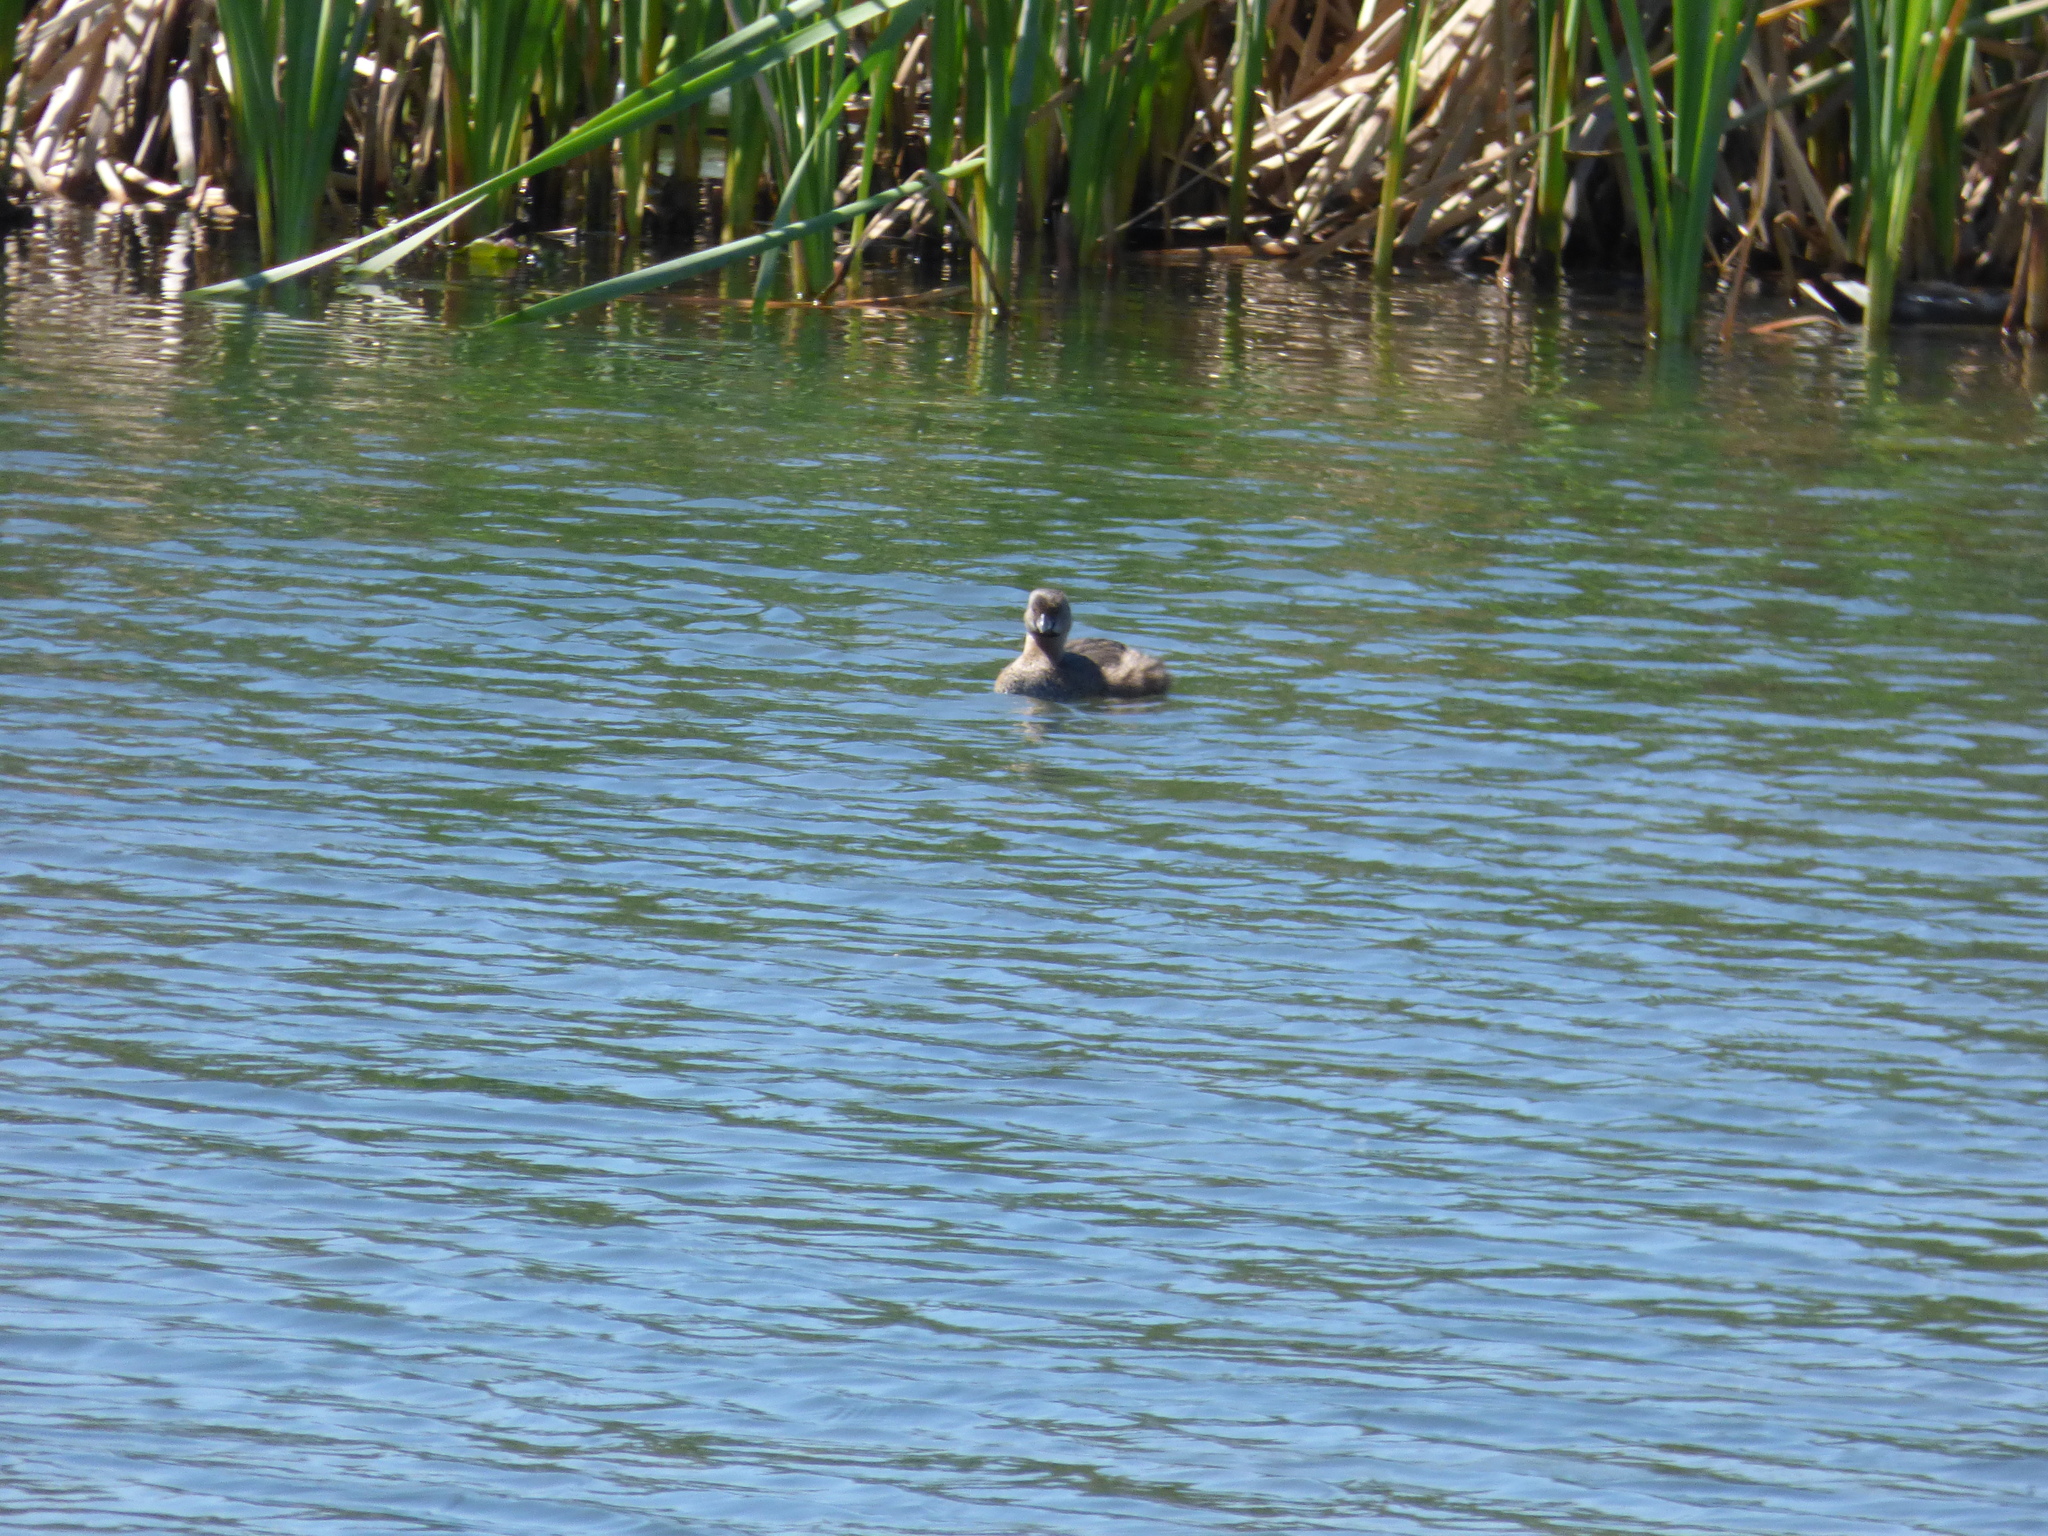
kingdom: Animalia
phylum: Chordata
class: Aves
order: Podicipediformes
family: Podicipedidae
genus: Podilymbus
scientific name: Podilymbus podiceps
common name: Pied-billed grebe
